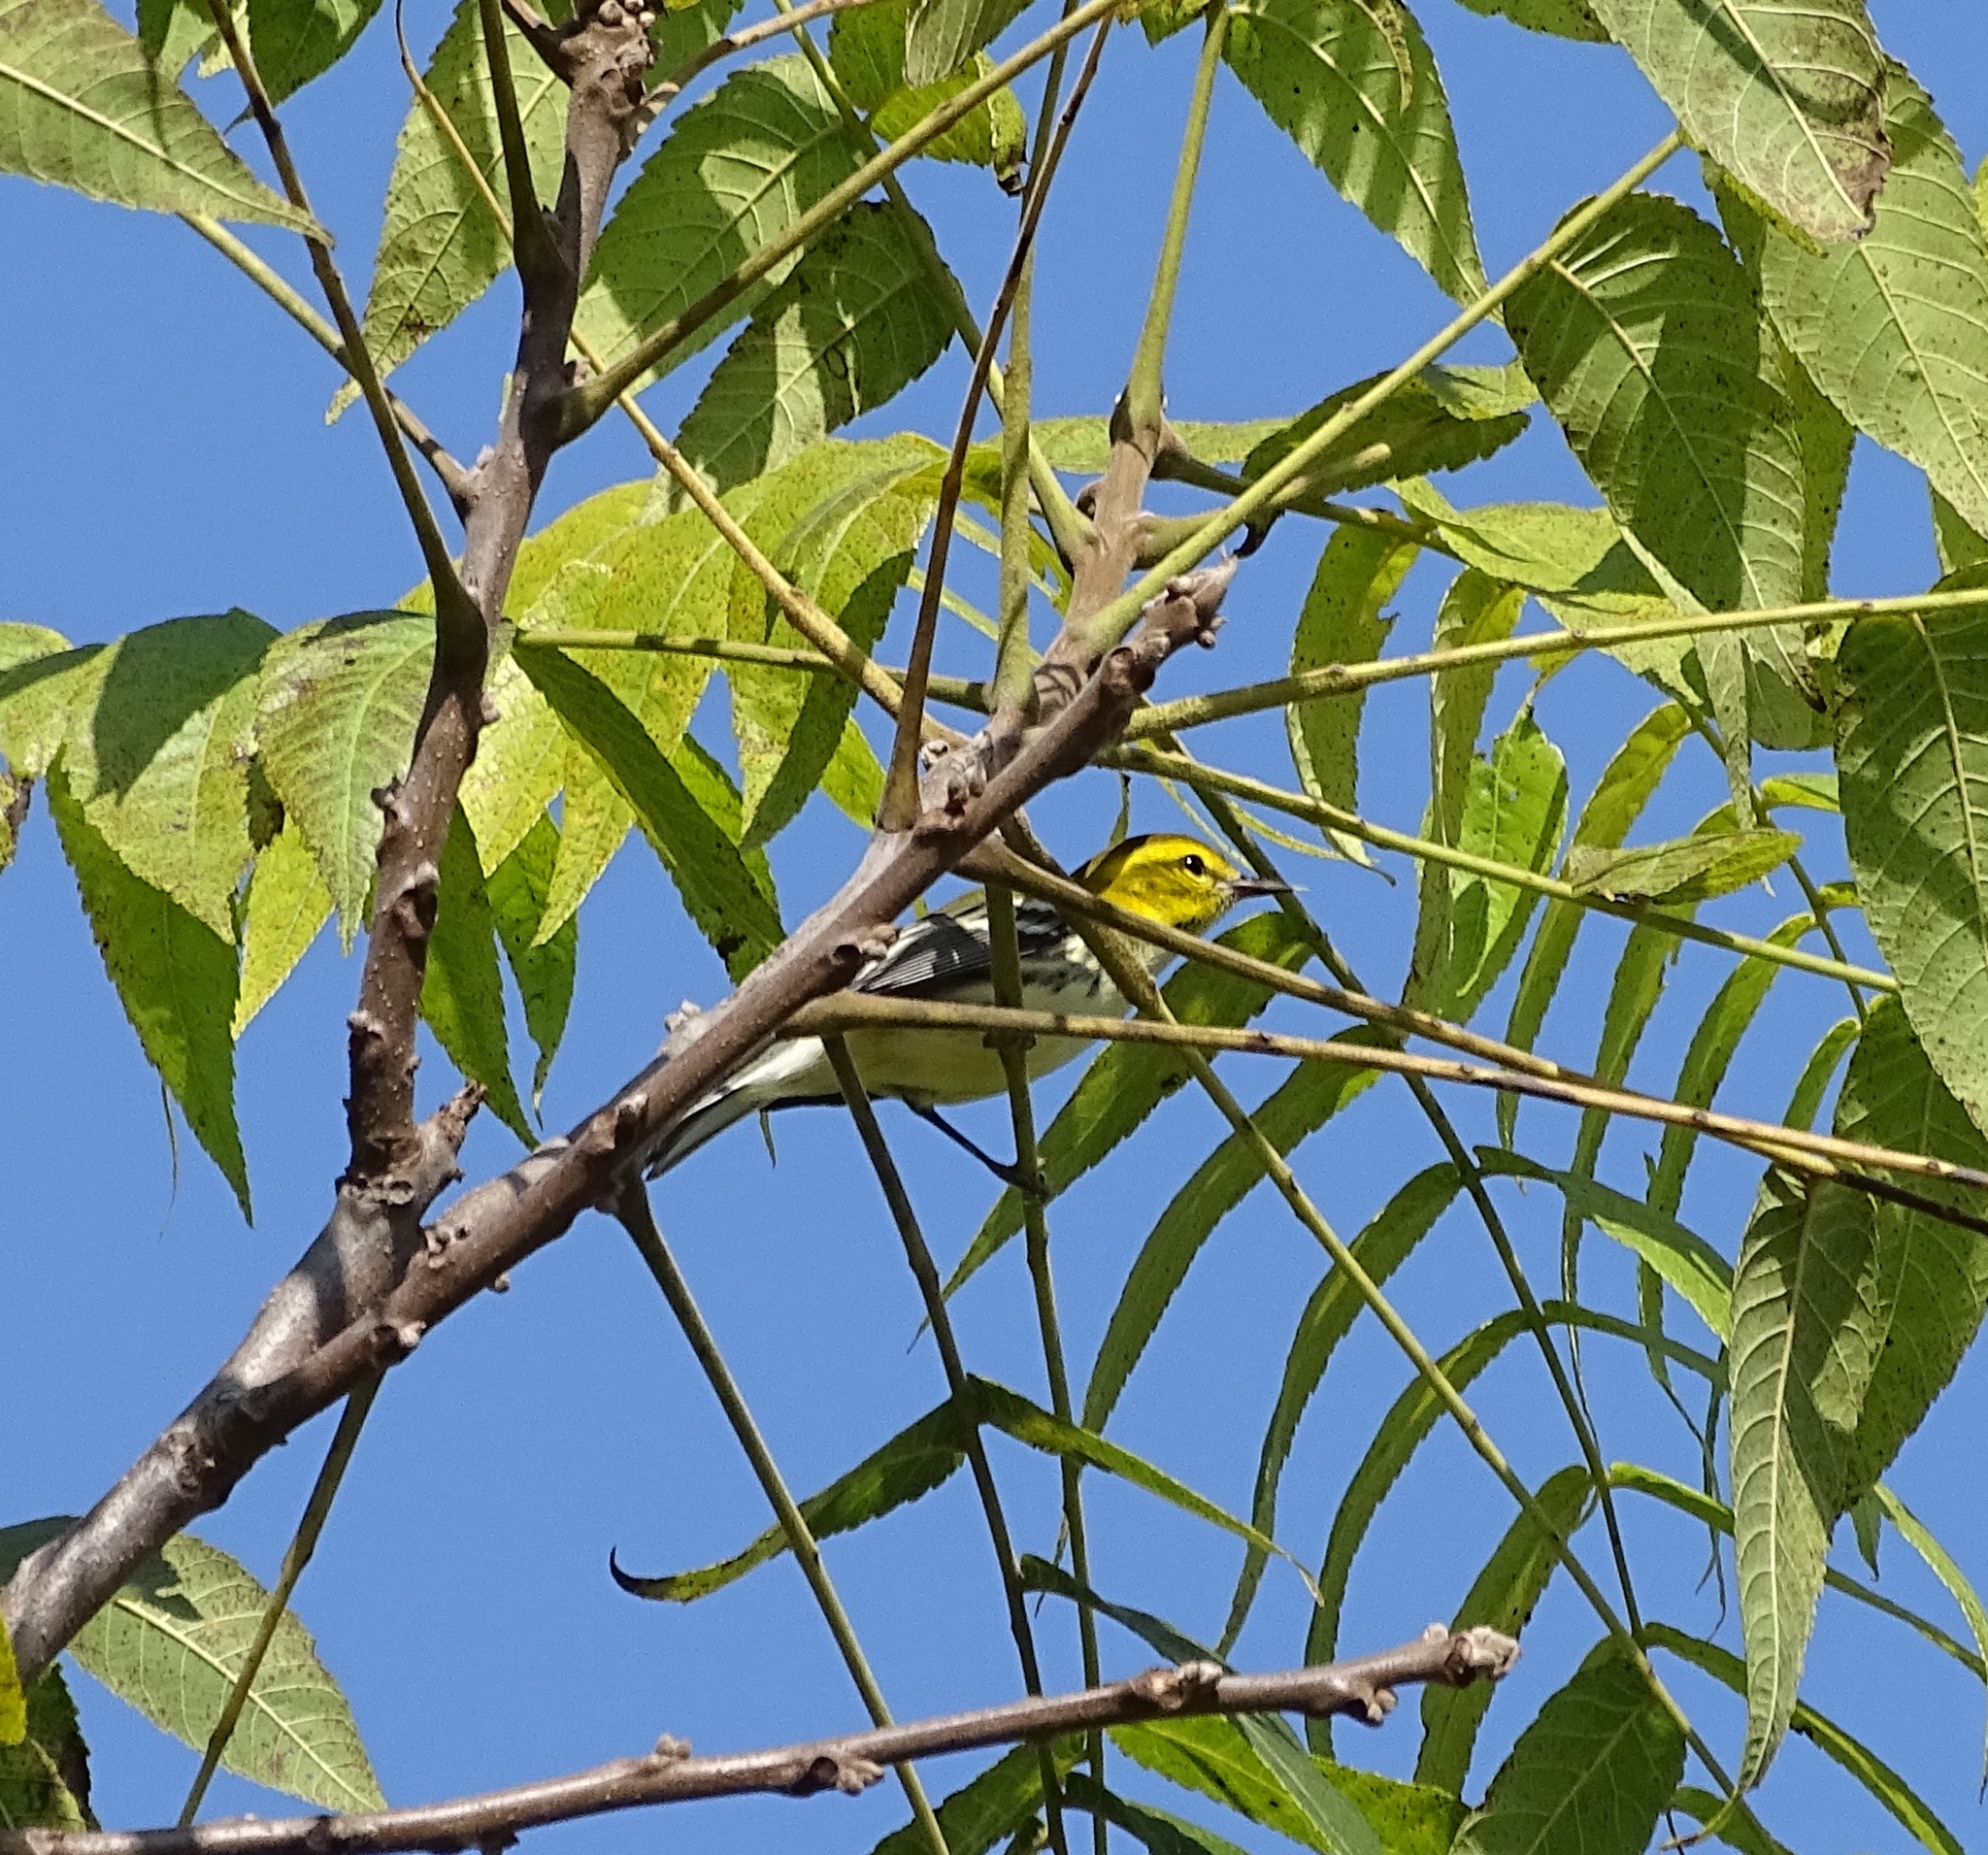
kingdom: Animalia
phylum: Chordata
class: Aves
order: Passeriformes
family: Parulidae
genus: Setophaga
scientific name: Setophaga virens
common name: Black-throated green warbler
